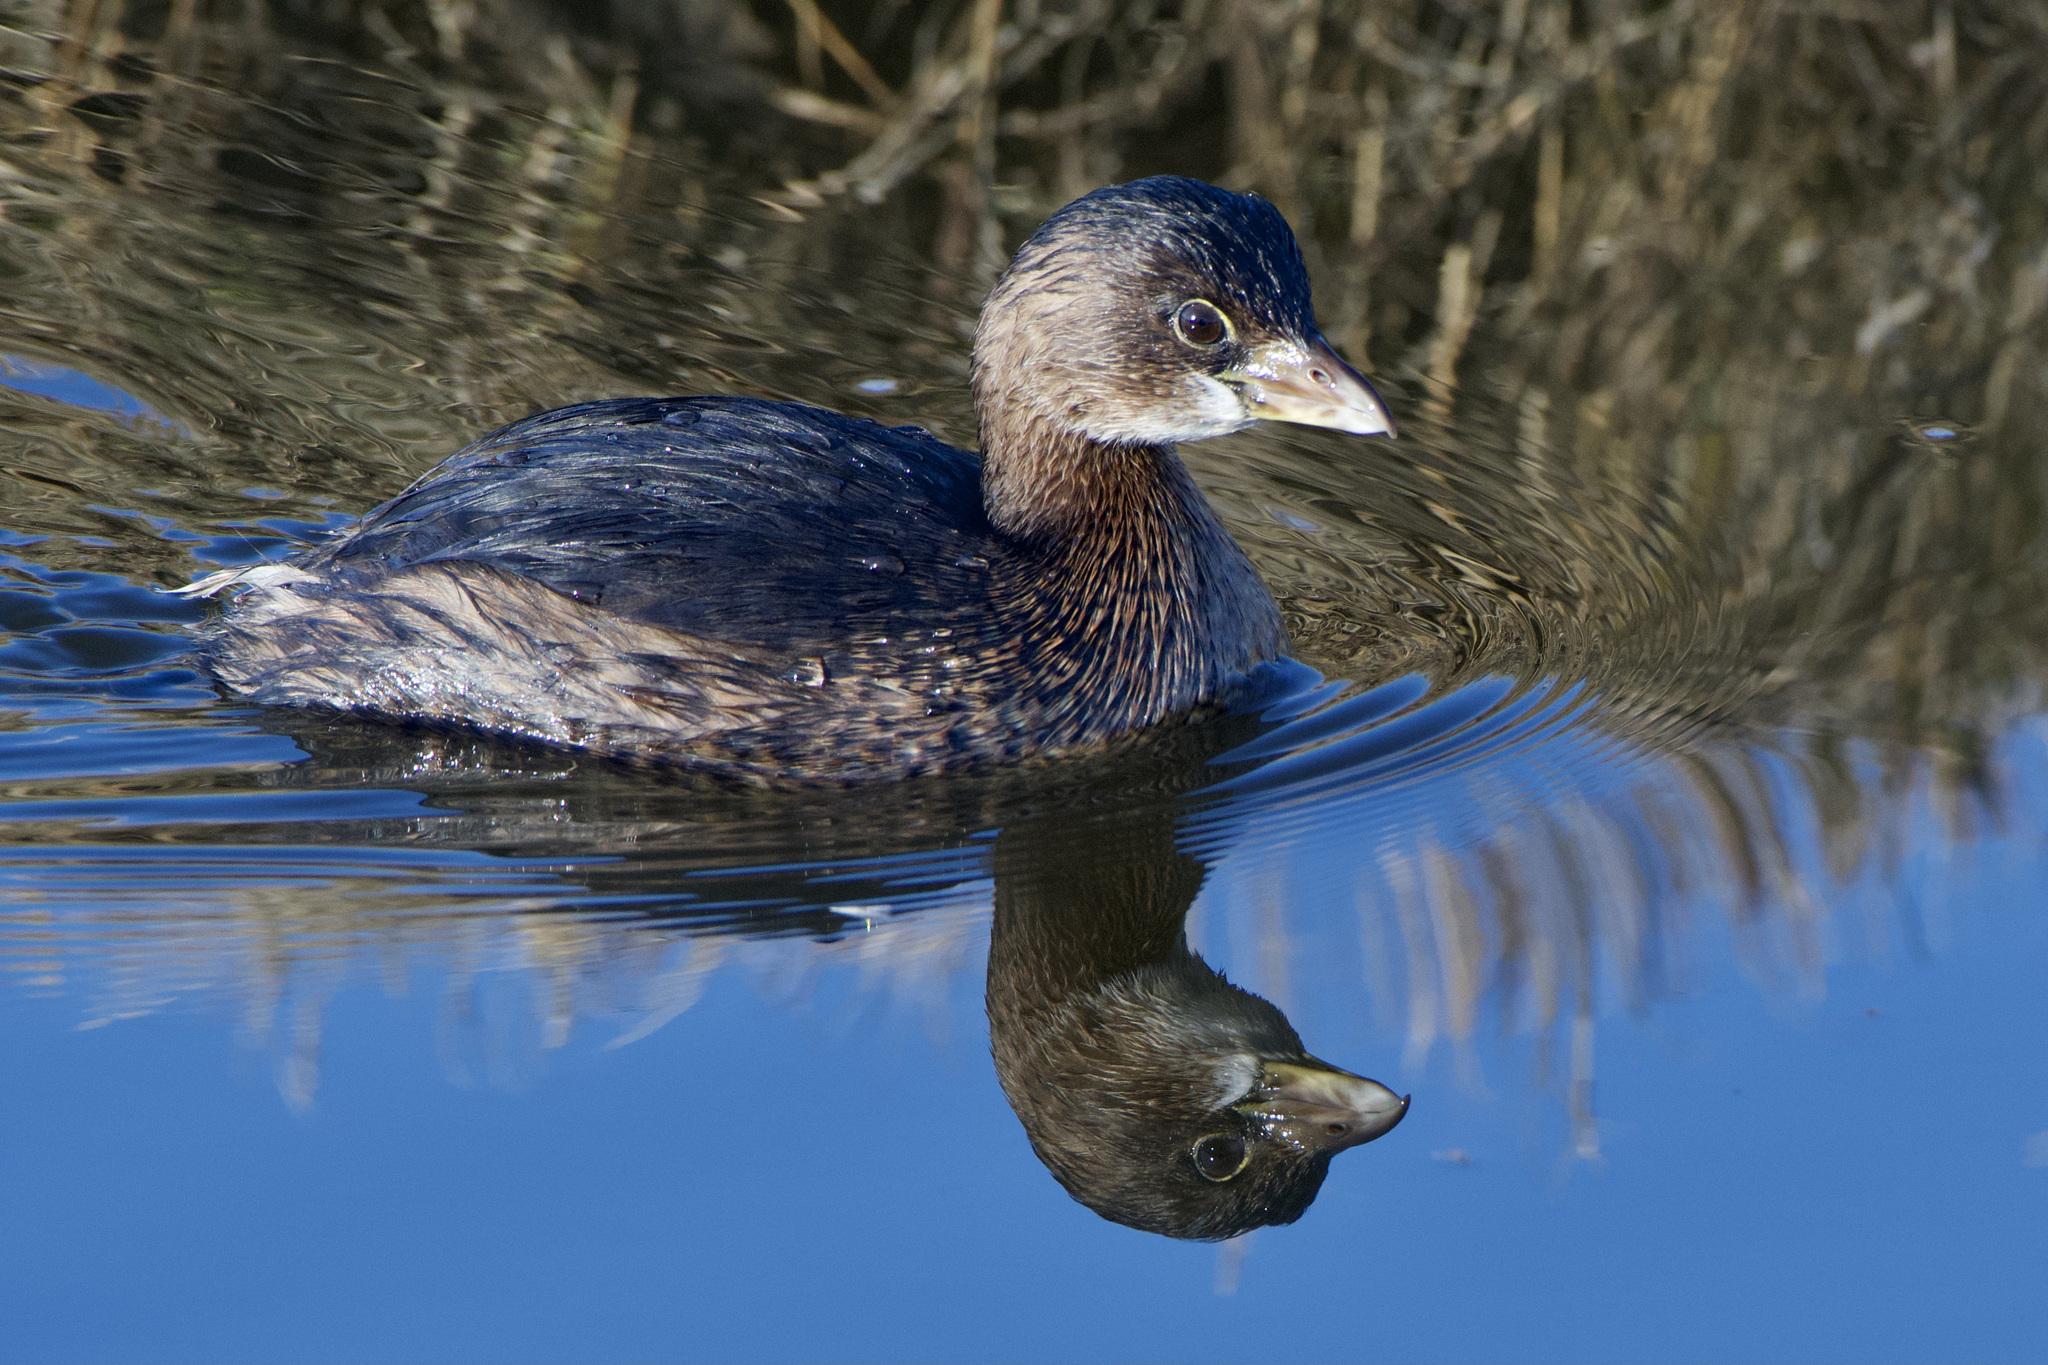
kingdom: Animalia
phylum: Chordata
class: Aves
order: Podicipediformes
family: Podicipedidae
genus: Podilymbus
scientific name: Podilymbus podiceps
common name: Pied-billed grebe
